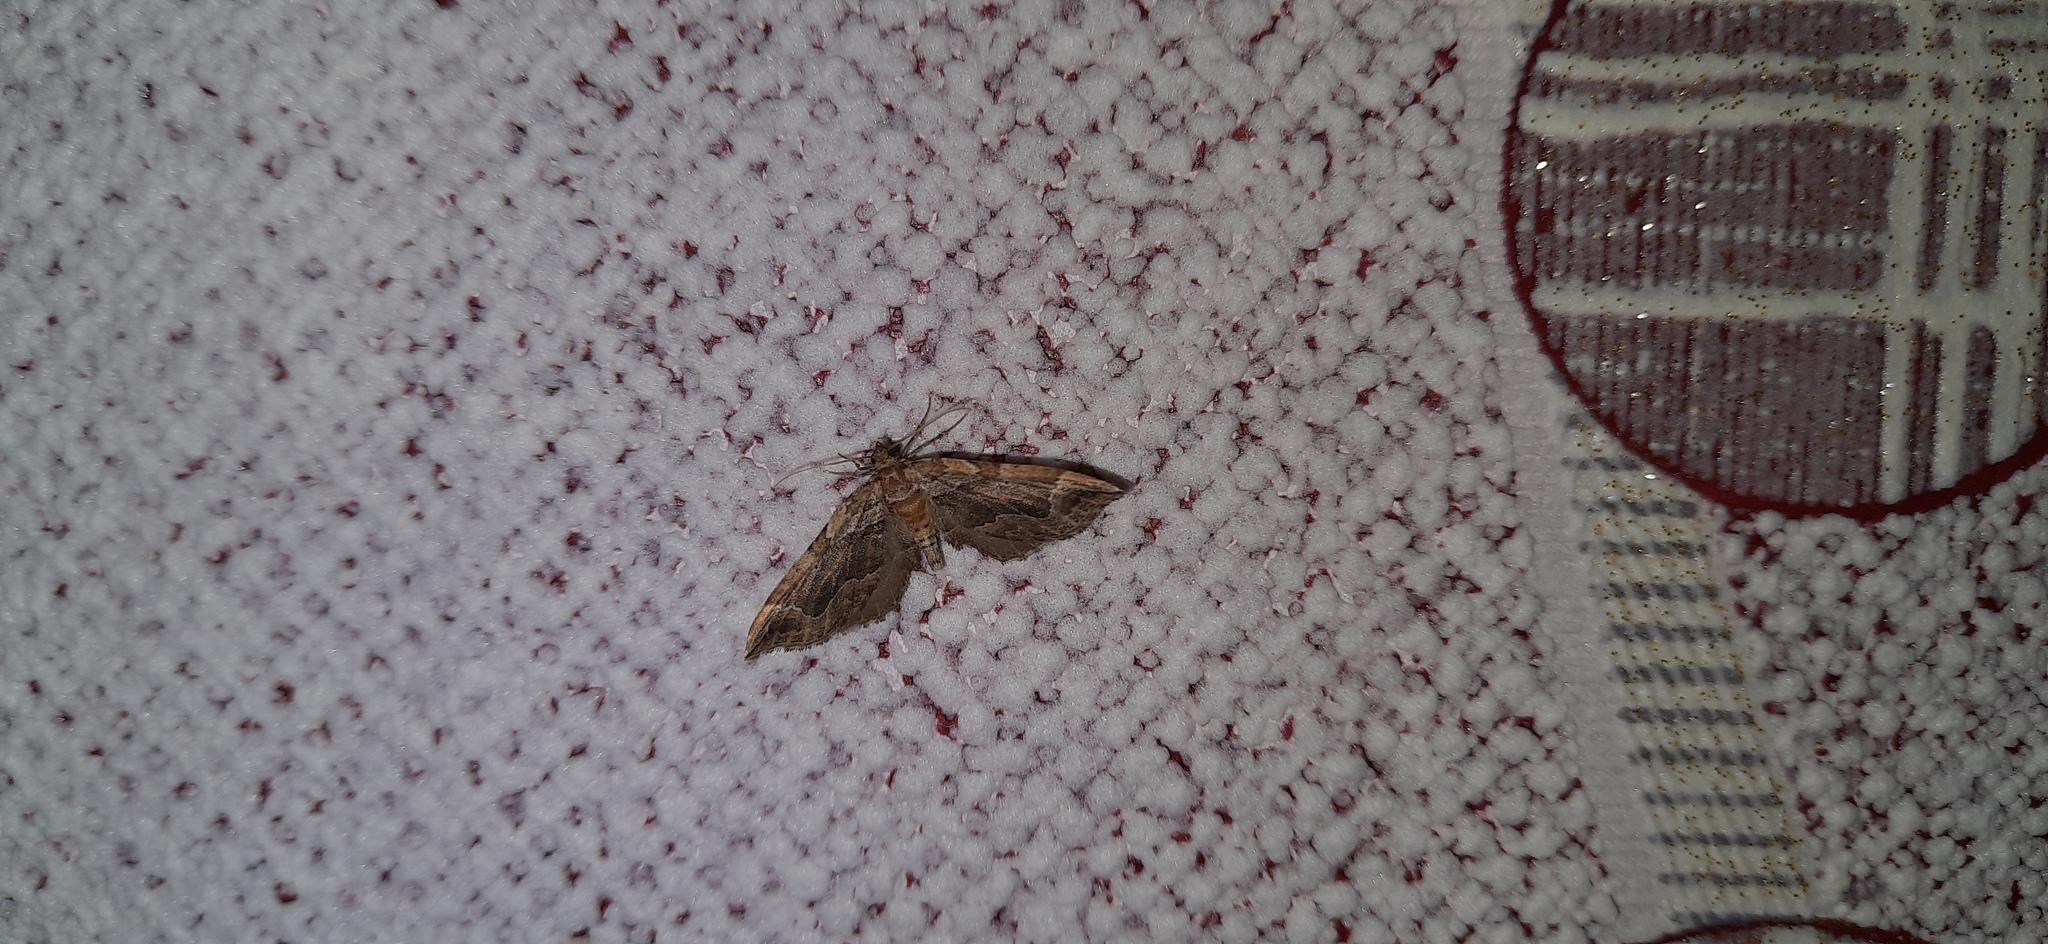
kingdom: Animalia
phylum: Arthropoda
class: Insecta
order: Lepidoptera
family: Geometridae
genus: Pelurga
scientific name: Pelurga comitata
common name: Dark spinach
